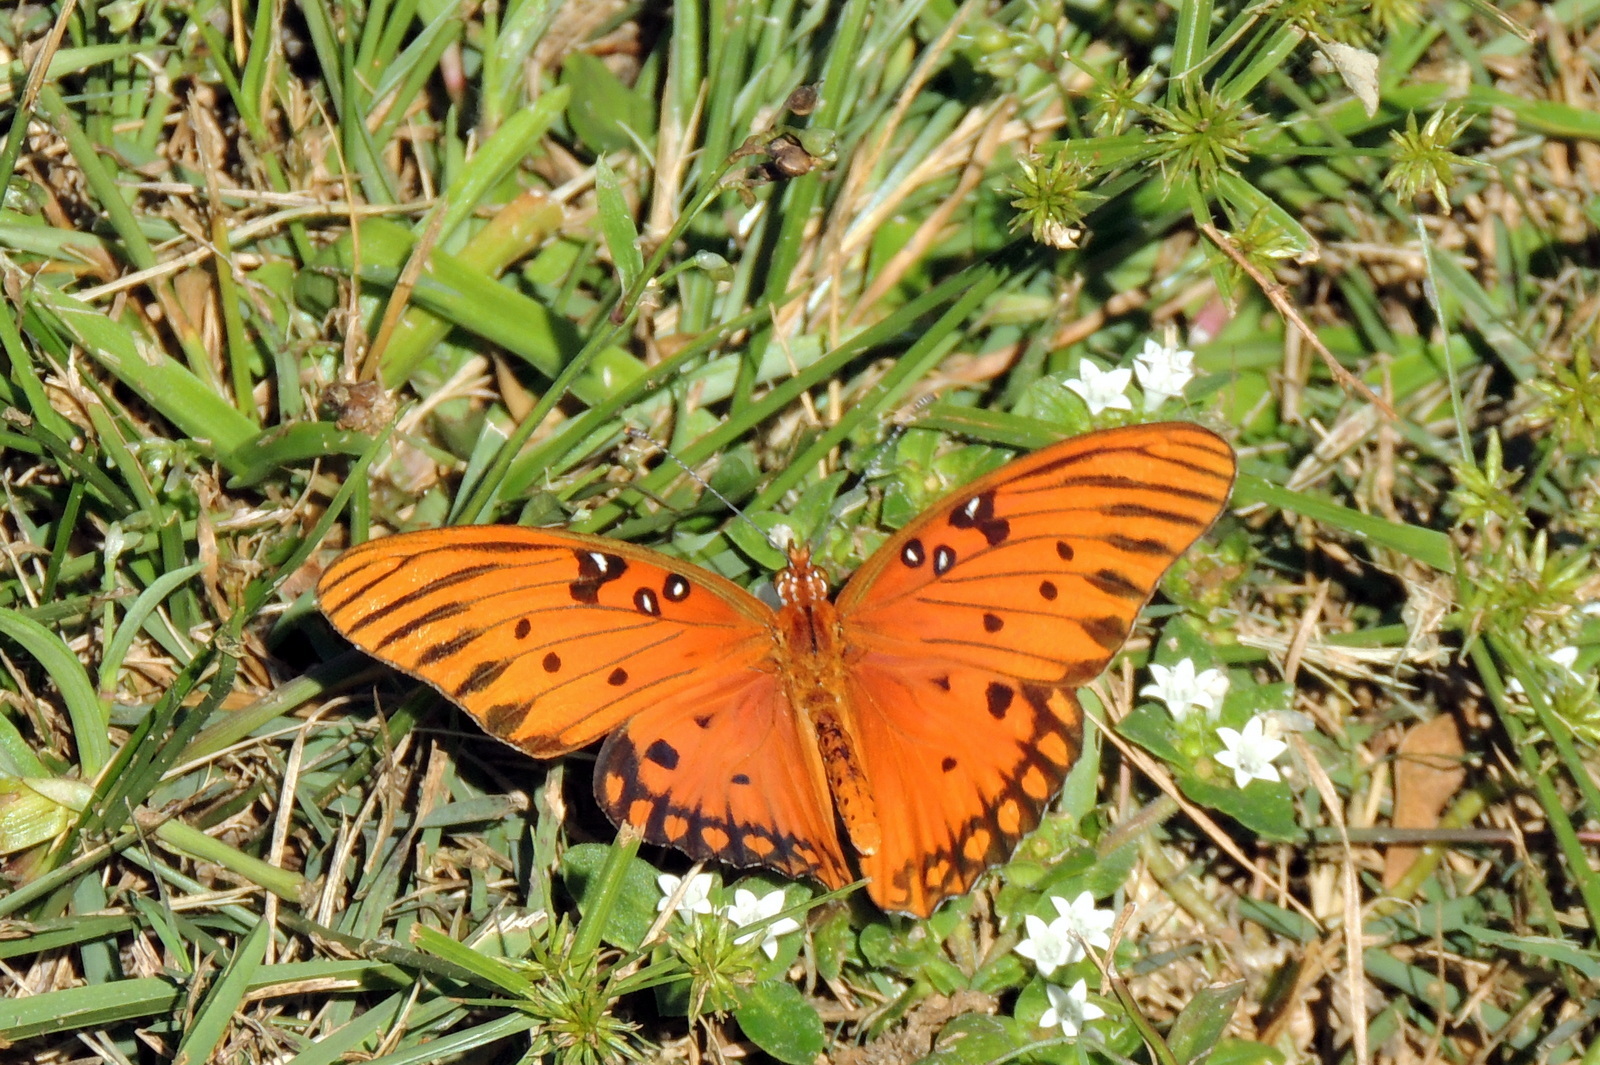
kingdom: Animalia
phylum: Arthropoda
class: Insecta
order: Lepidoptera
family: Nymphalidae
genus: Dione
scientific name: Dione vanillae
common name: Gulf fritillary
